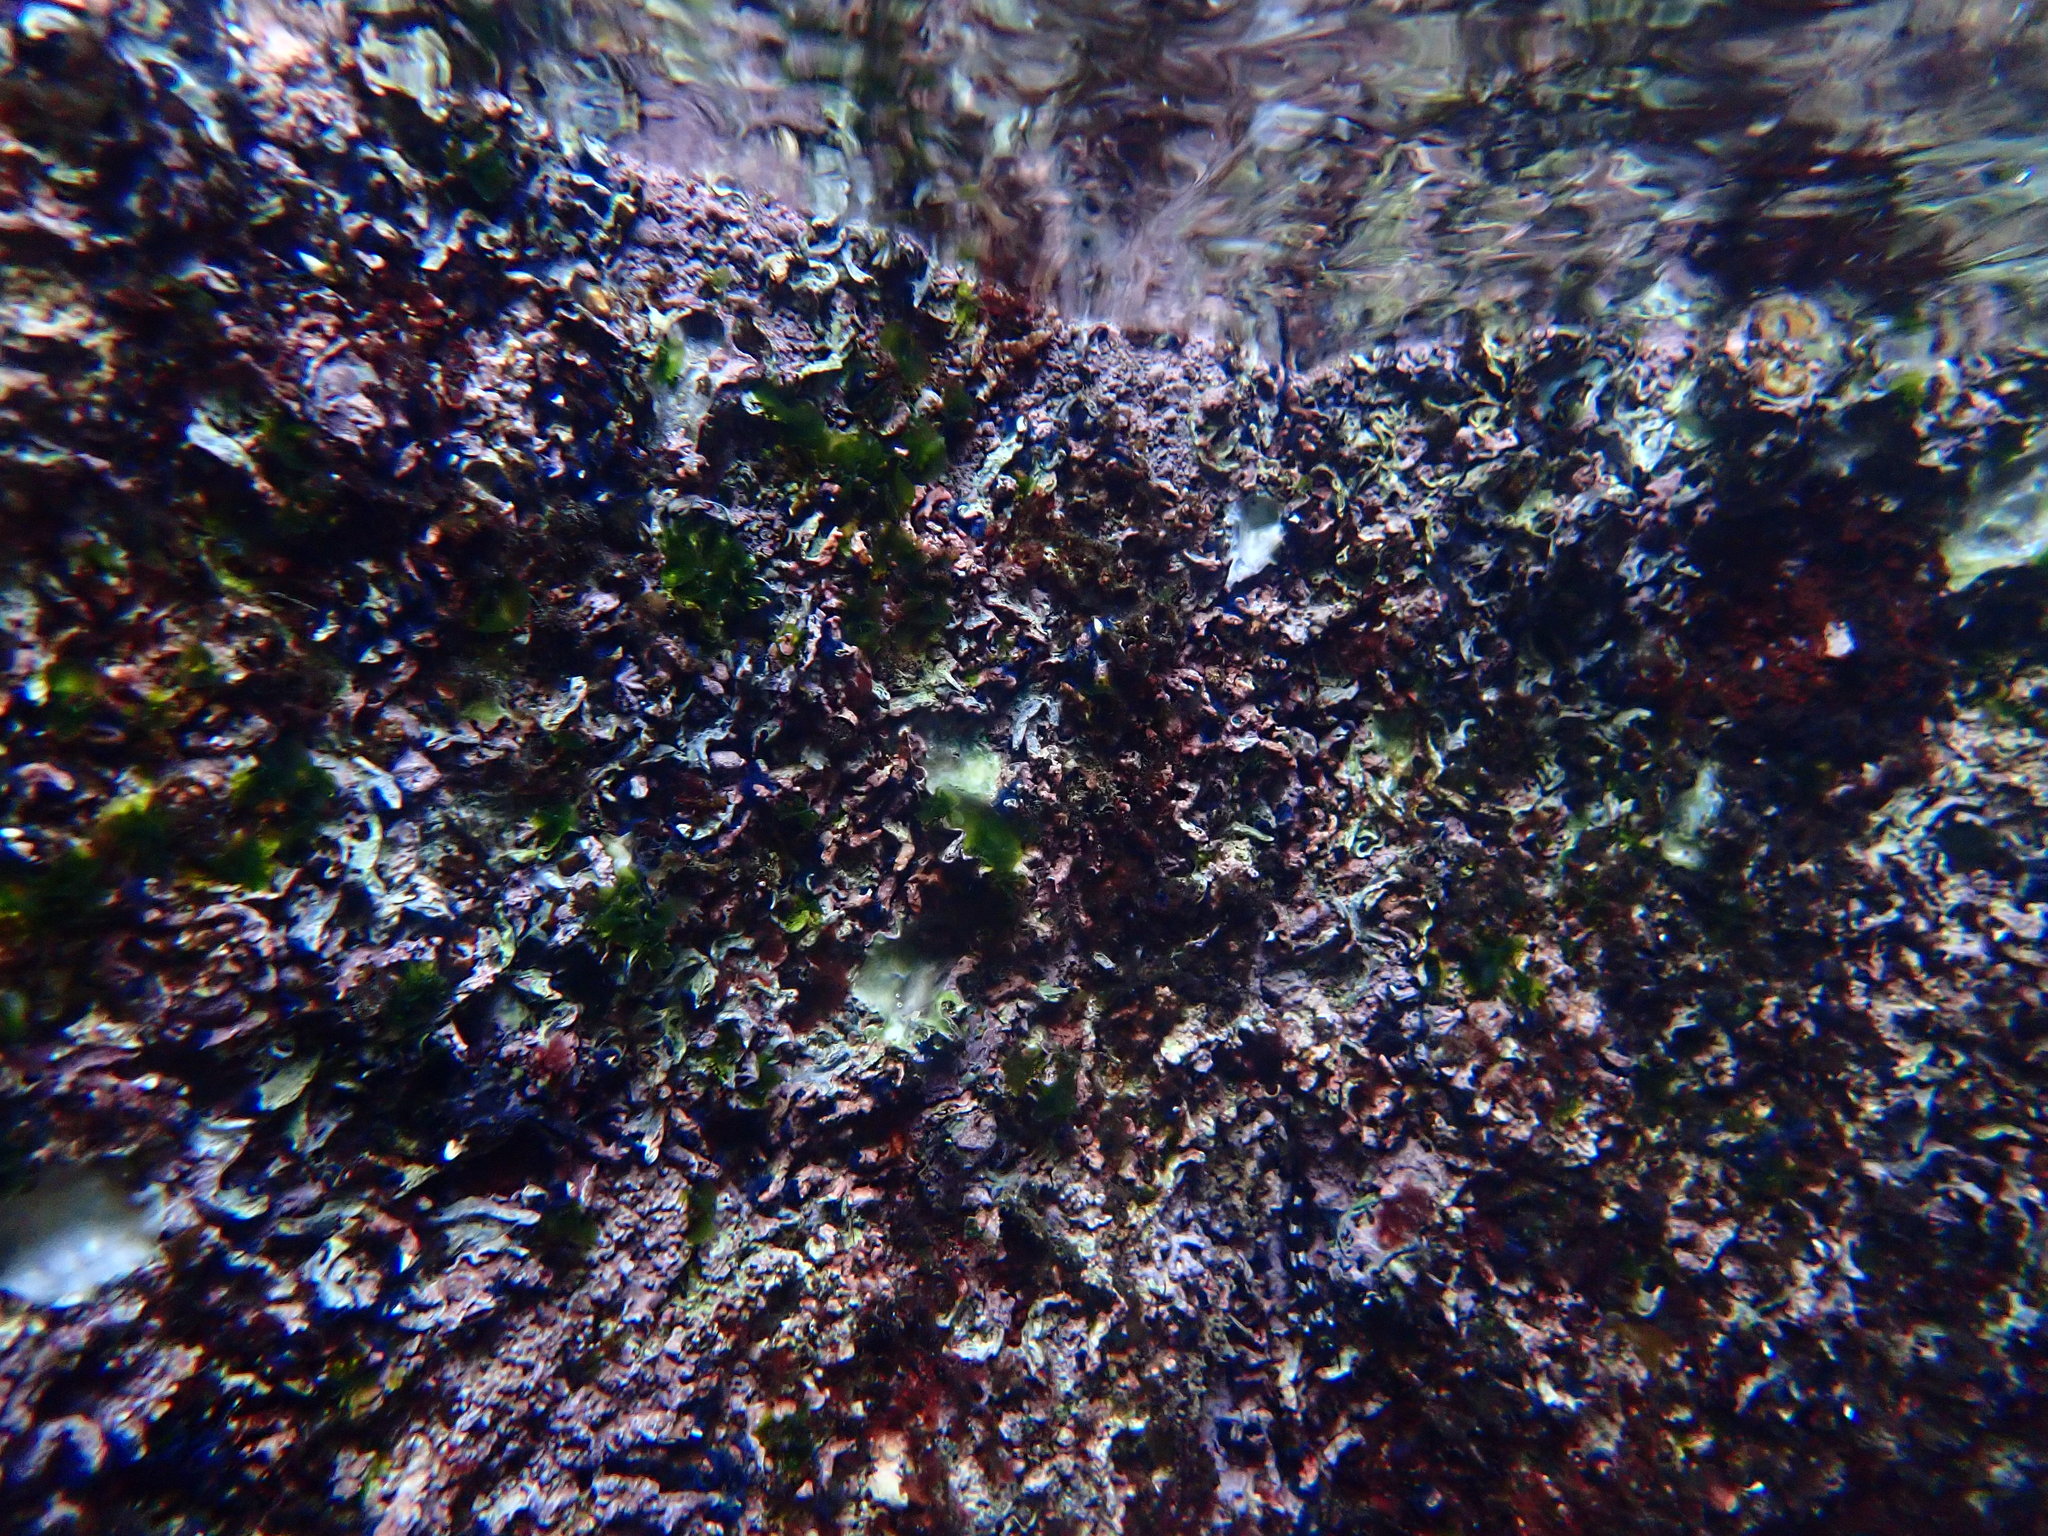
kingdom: Animalia
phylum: Annelida
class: Polychaeta
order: Sabellida
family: Serpulidae
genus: Spirobranchus
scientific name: Spirobranchus cariniferus
